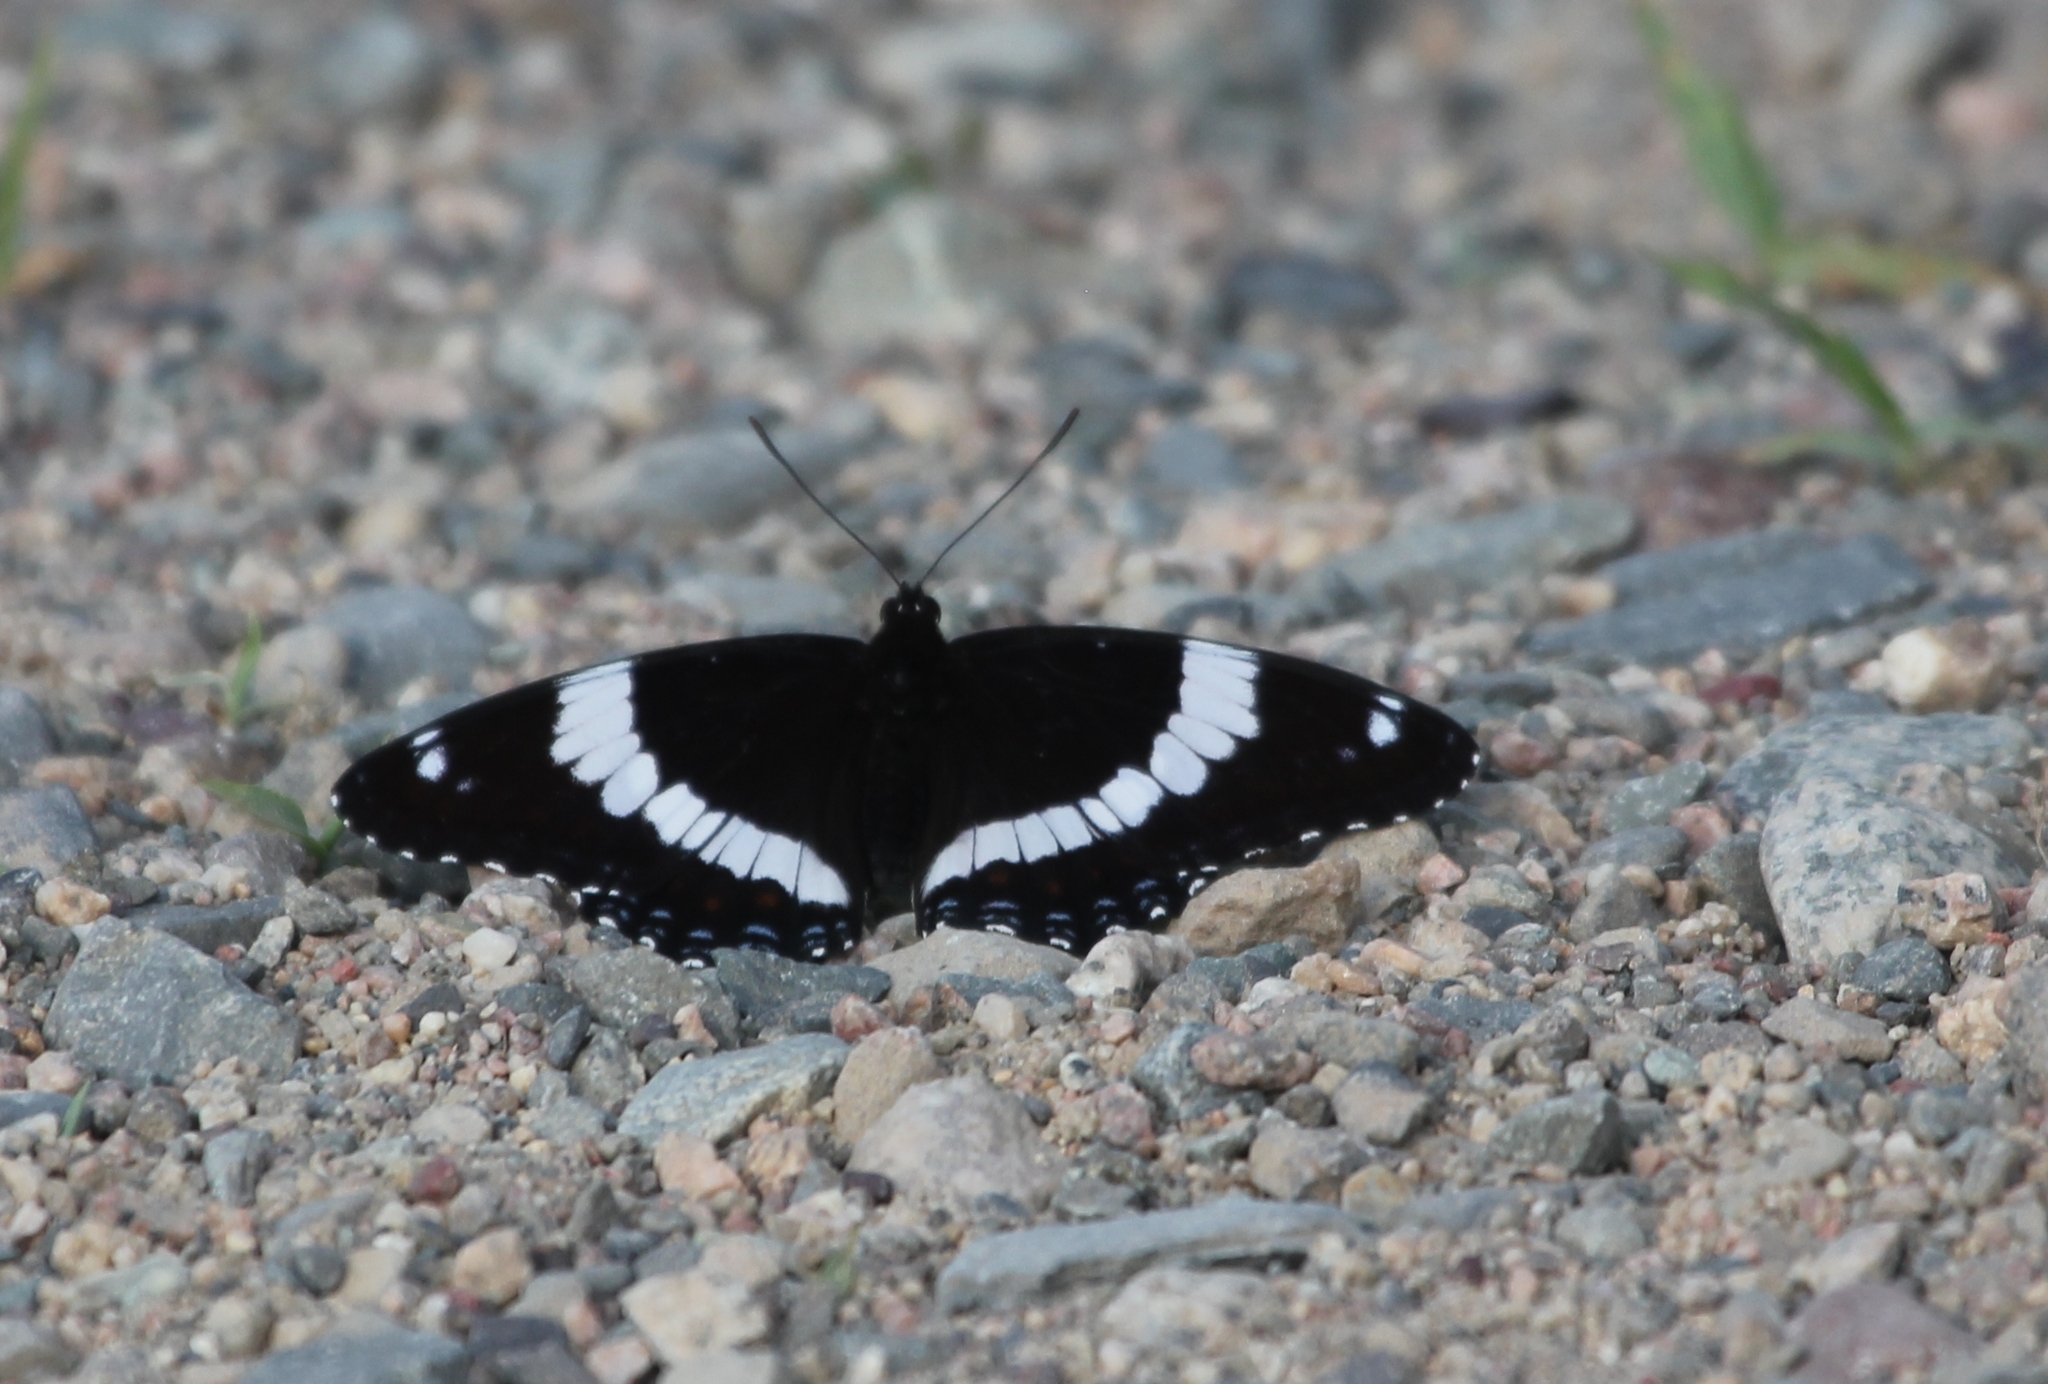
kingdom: Animalia
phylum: Arthropoda
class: Insecta
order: Lepidoptera
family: Nymphalidae
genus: Limenitis
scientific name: Limenitis arthemis
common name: Red-spotted admiral
